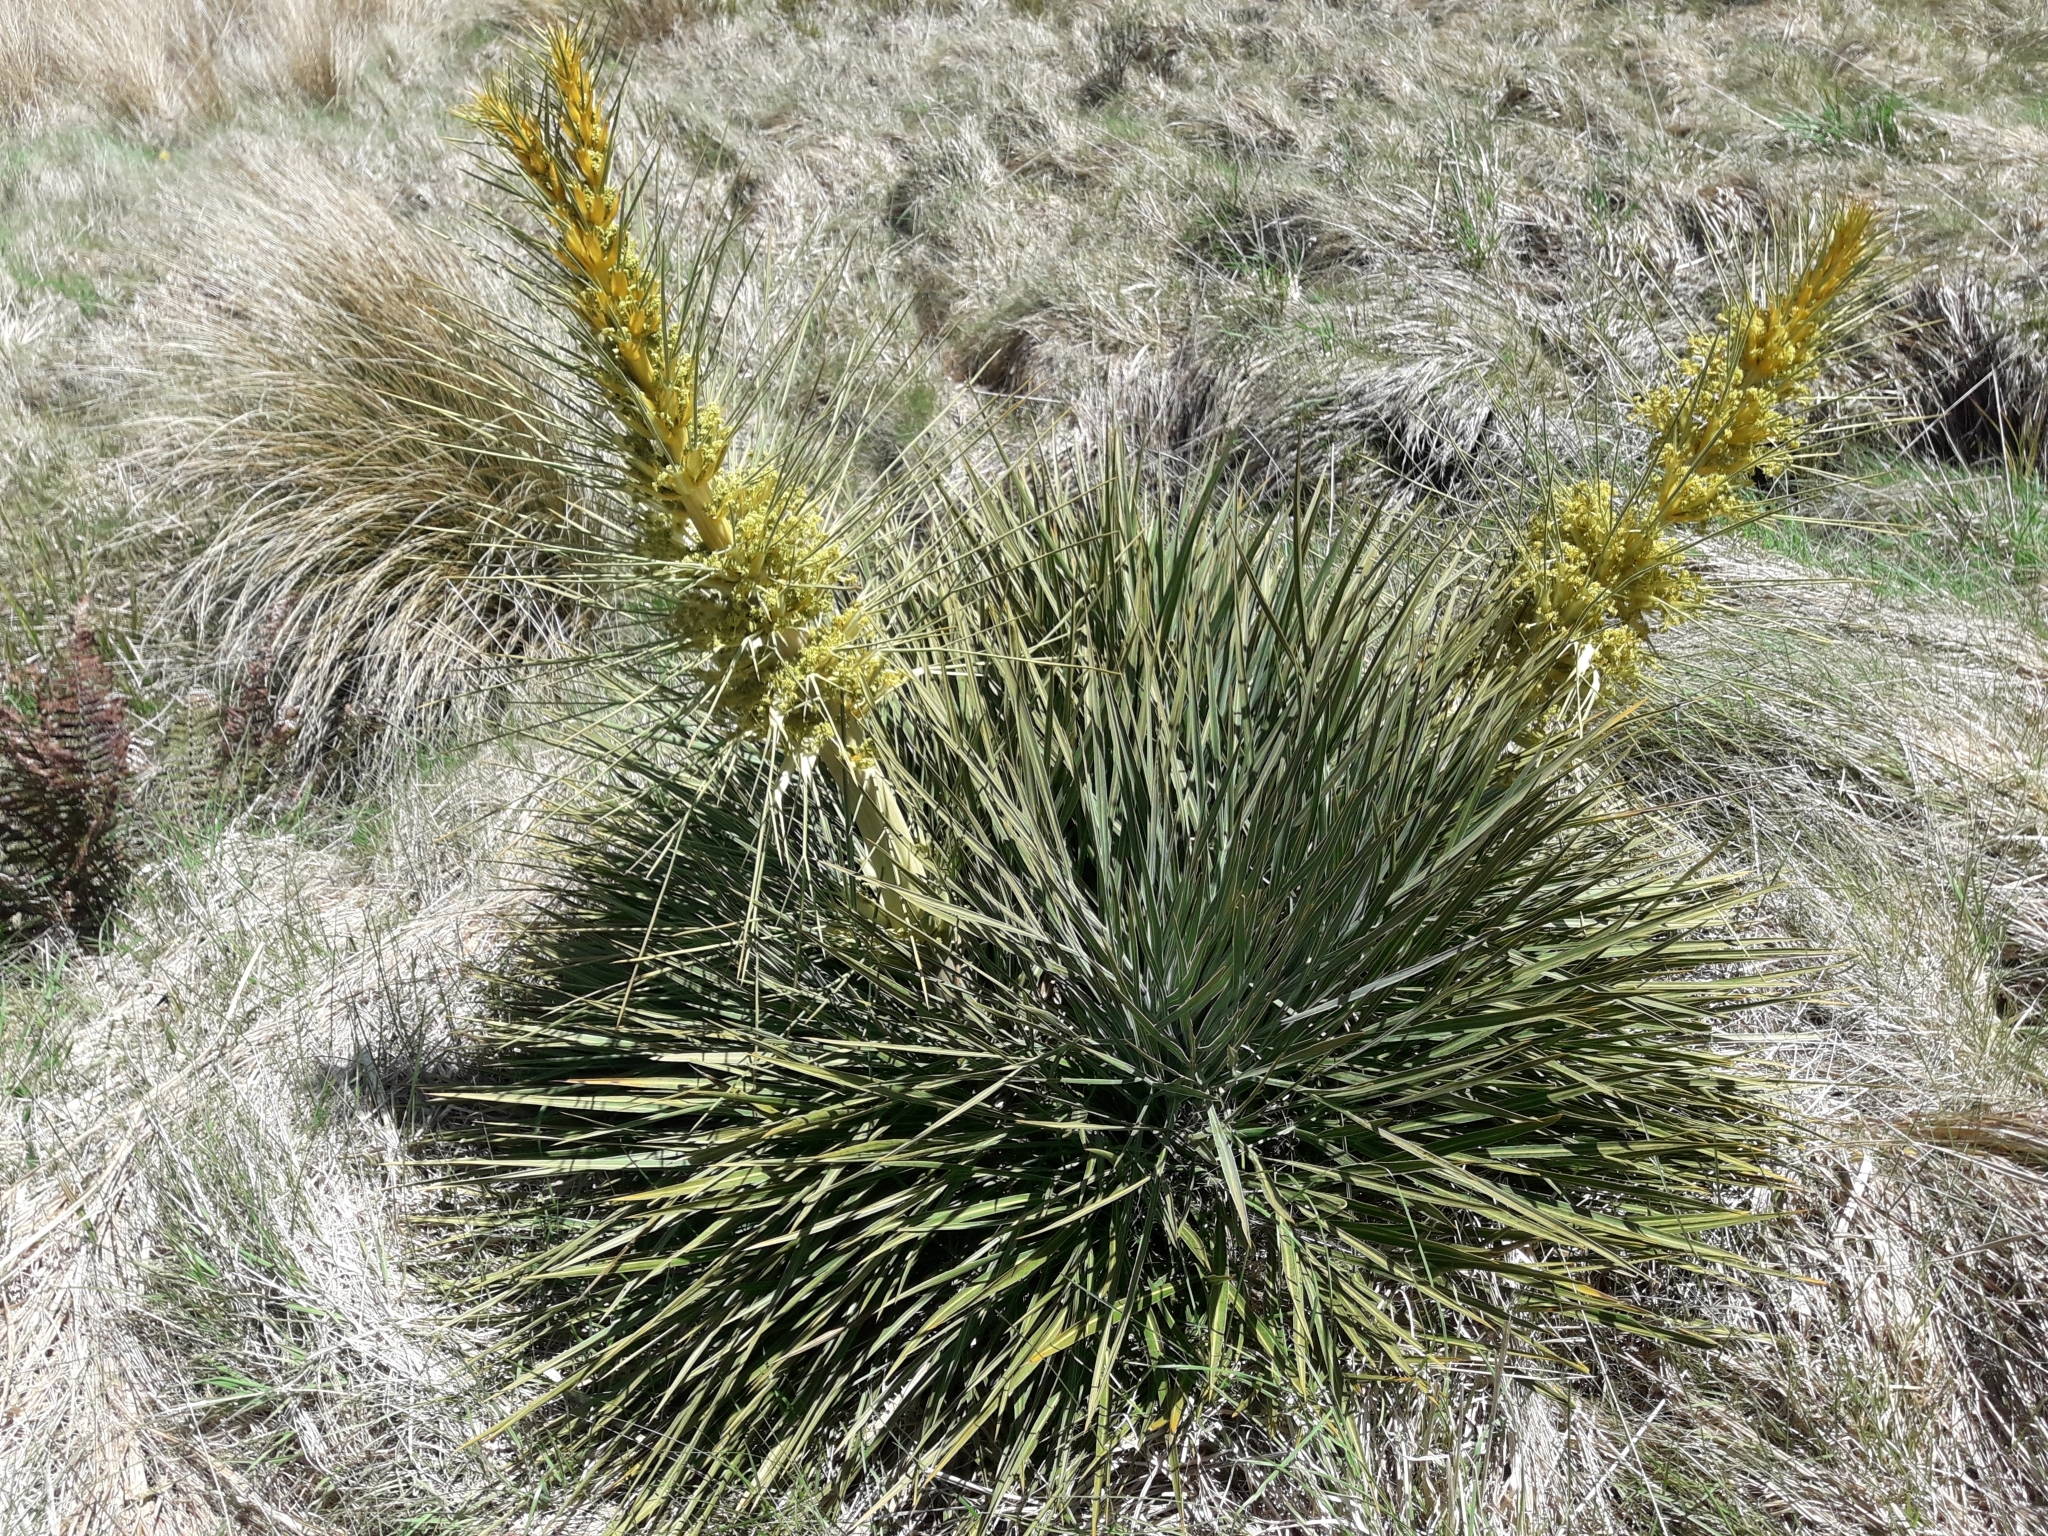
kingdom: Plantae
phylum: Tracheophyta
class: Magnoliopsida
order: Apiales
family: Apiaceae
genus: Aciphylla
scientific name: Aciphylla colensoi
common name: Colenso's spaniard
